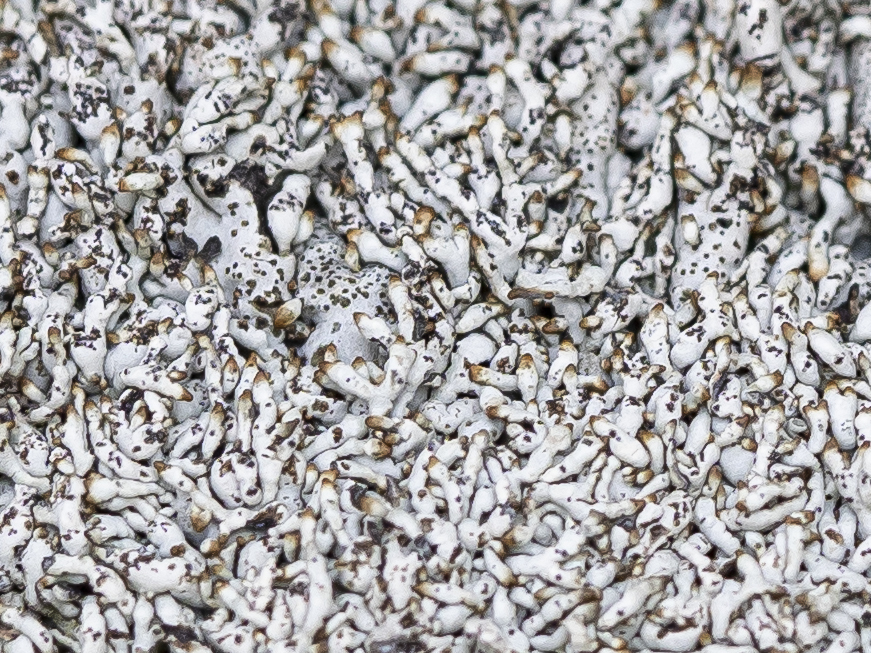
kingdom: Fungi
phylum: Ascomycota
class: Lecanoromycetes
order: Lecanorales
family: Parmeliaceae
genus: Brodoa
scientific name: Brodoa intestiniformis
